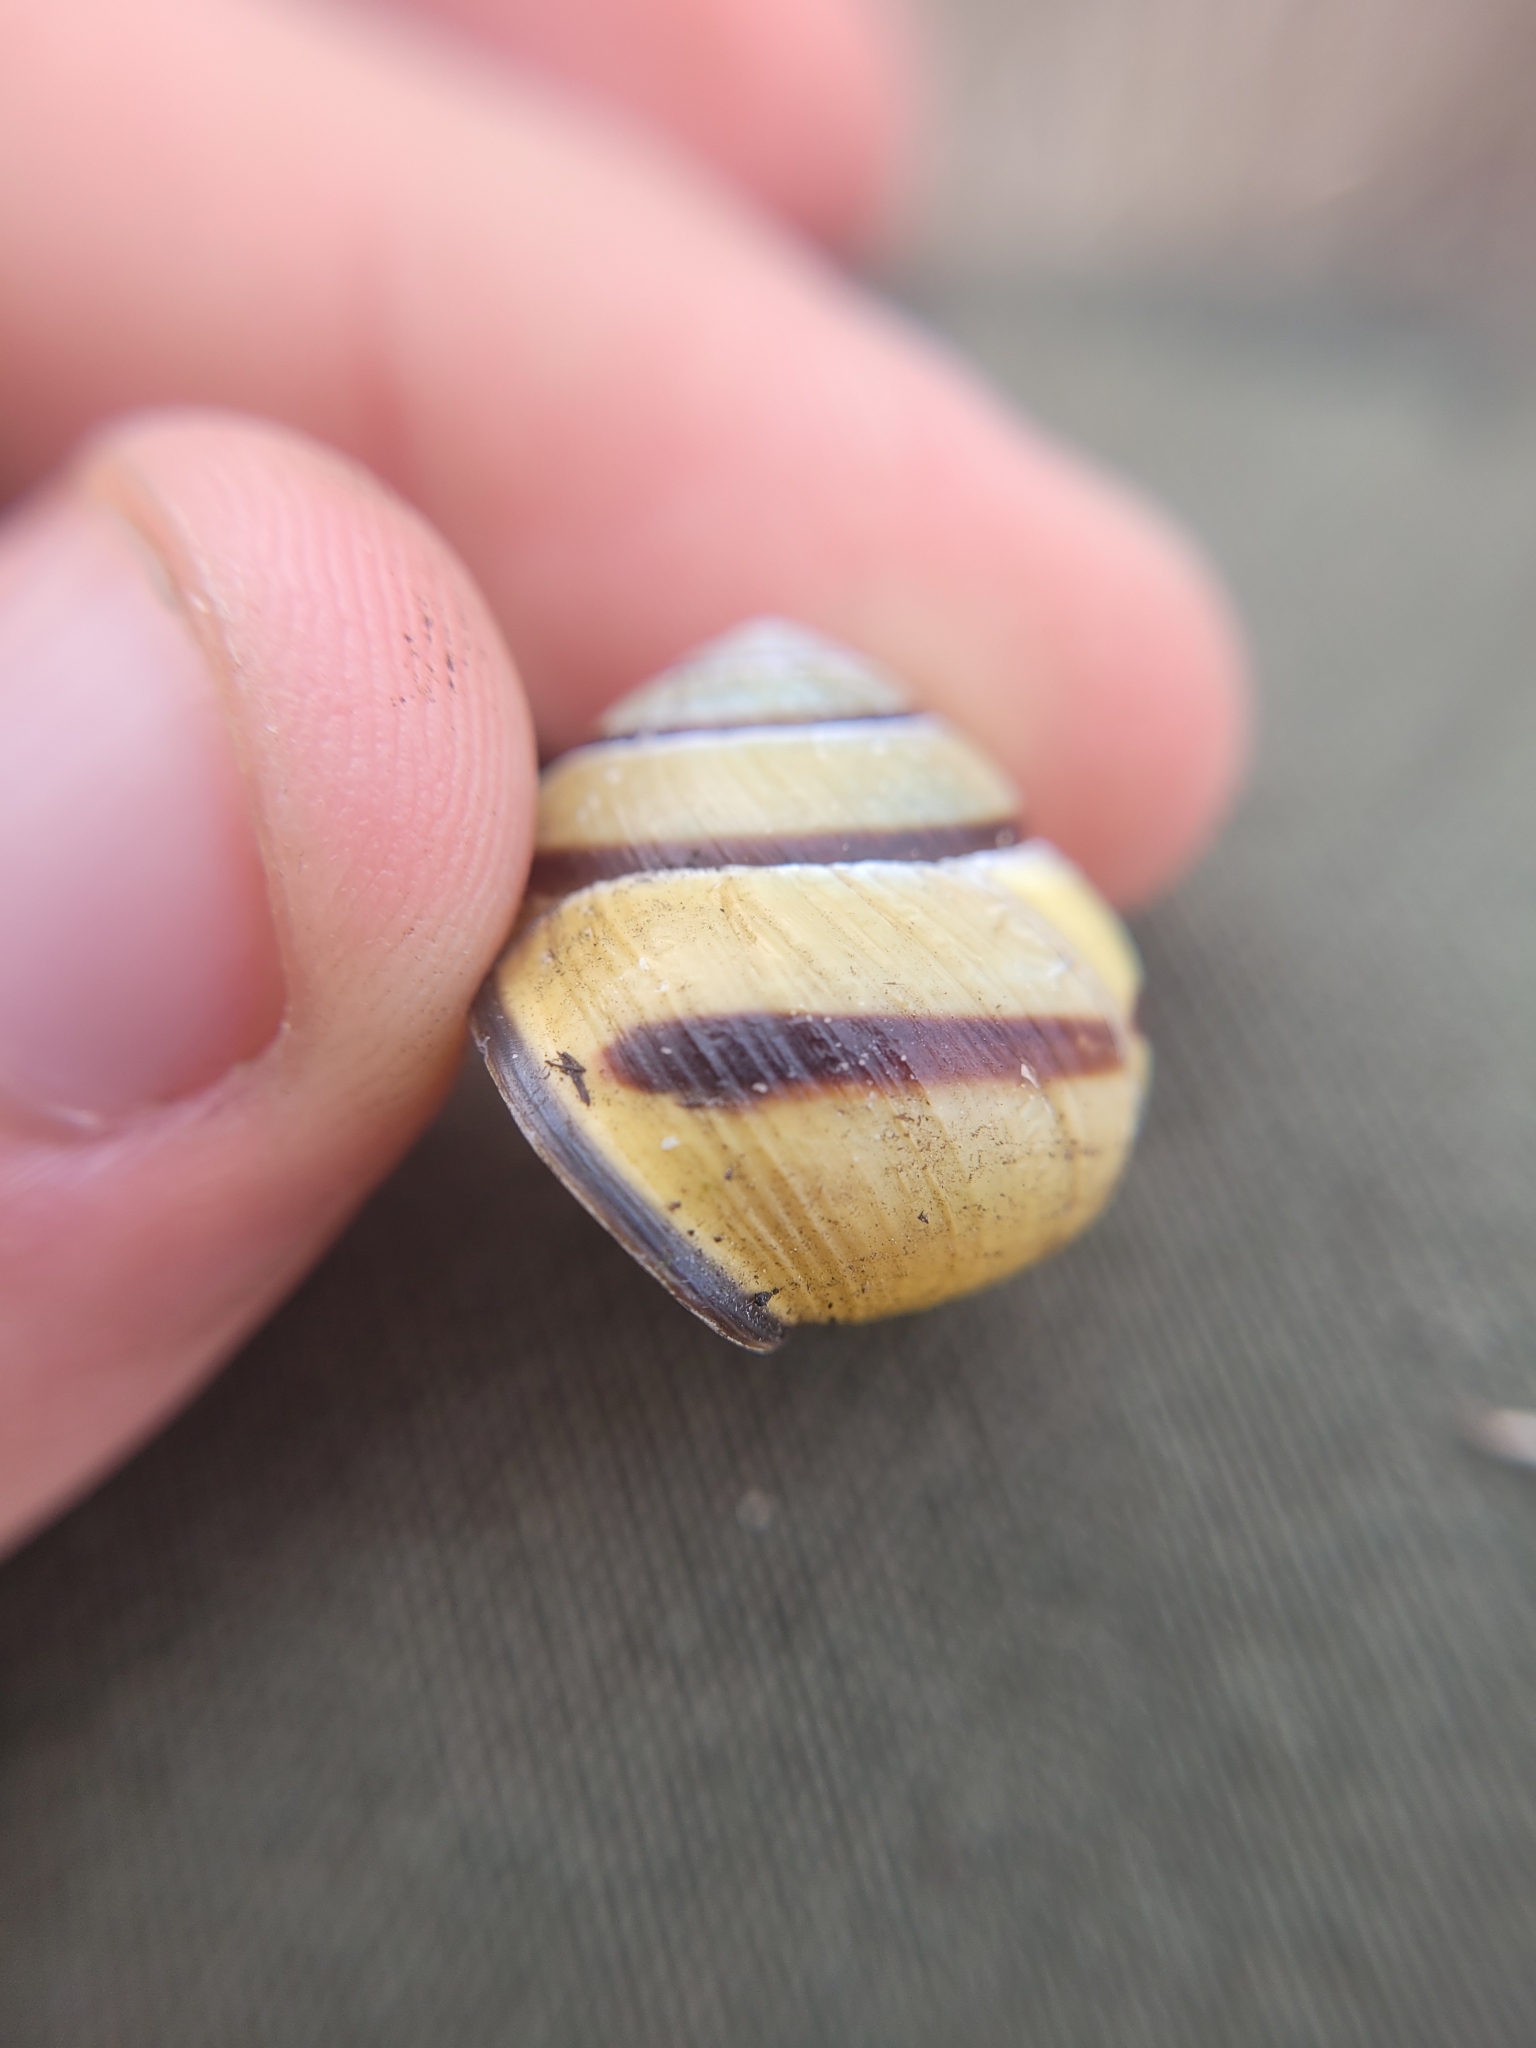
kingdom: Animalia
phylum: Mollusca
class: Gastropoda
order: Stylommatophora
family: Helicidae
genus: Cepaea
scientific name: Cepaea nemoralis
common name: Grovesnail
